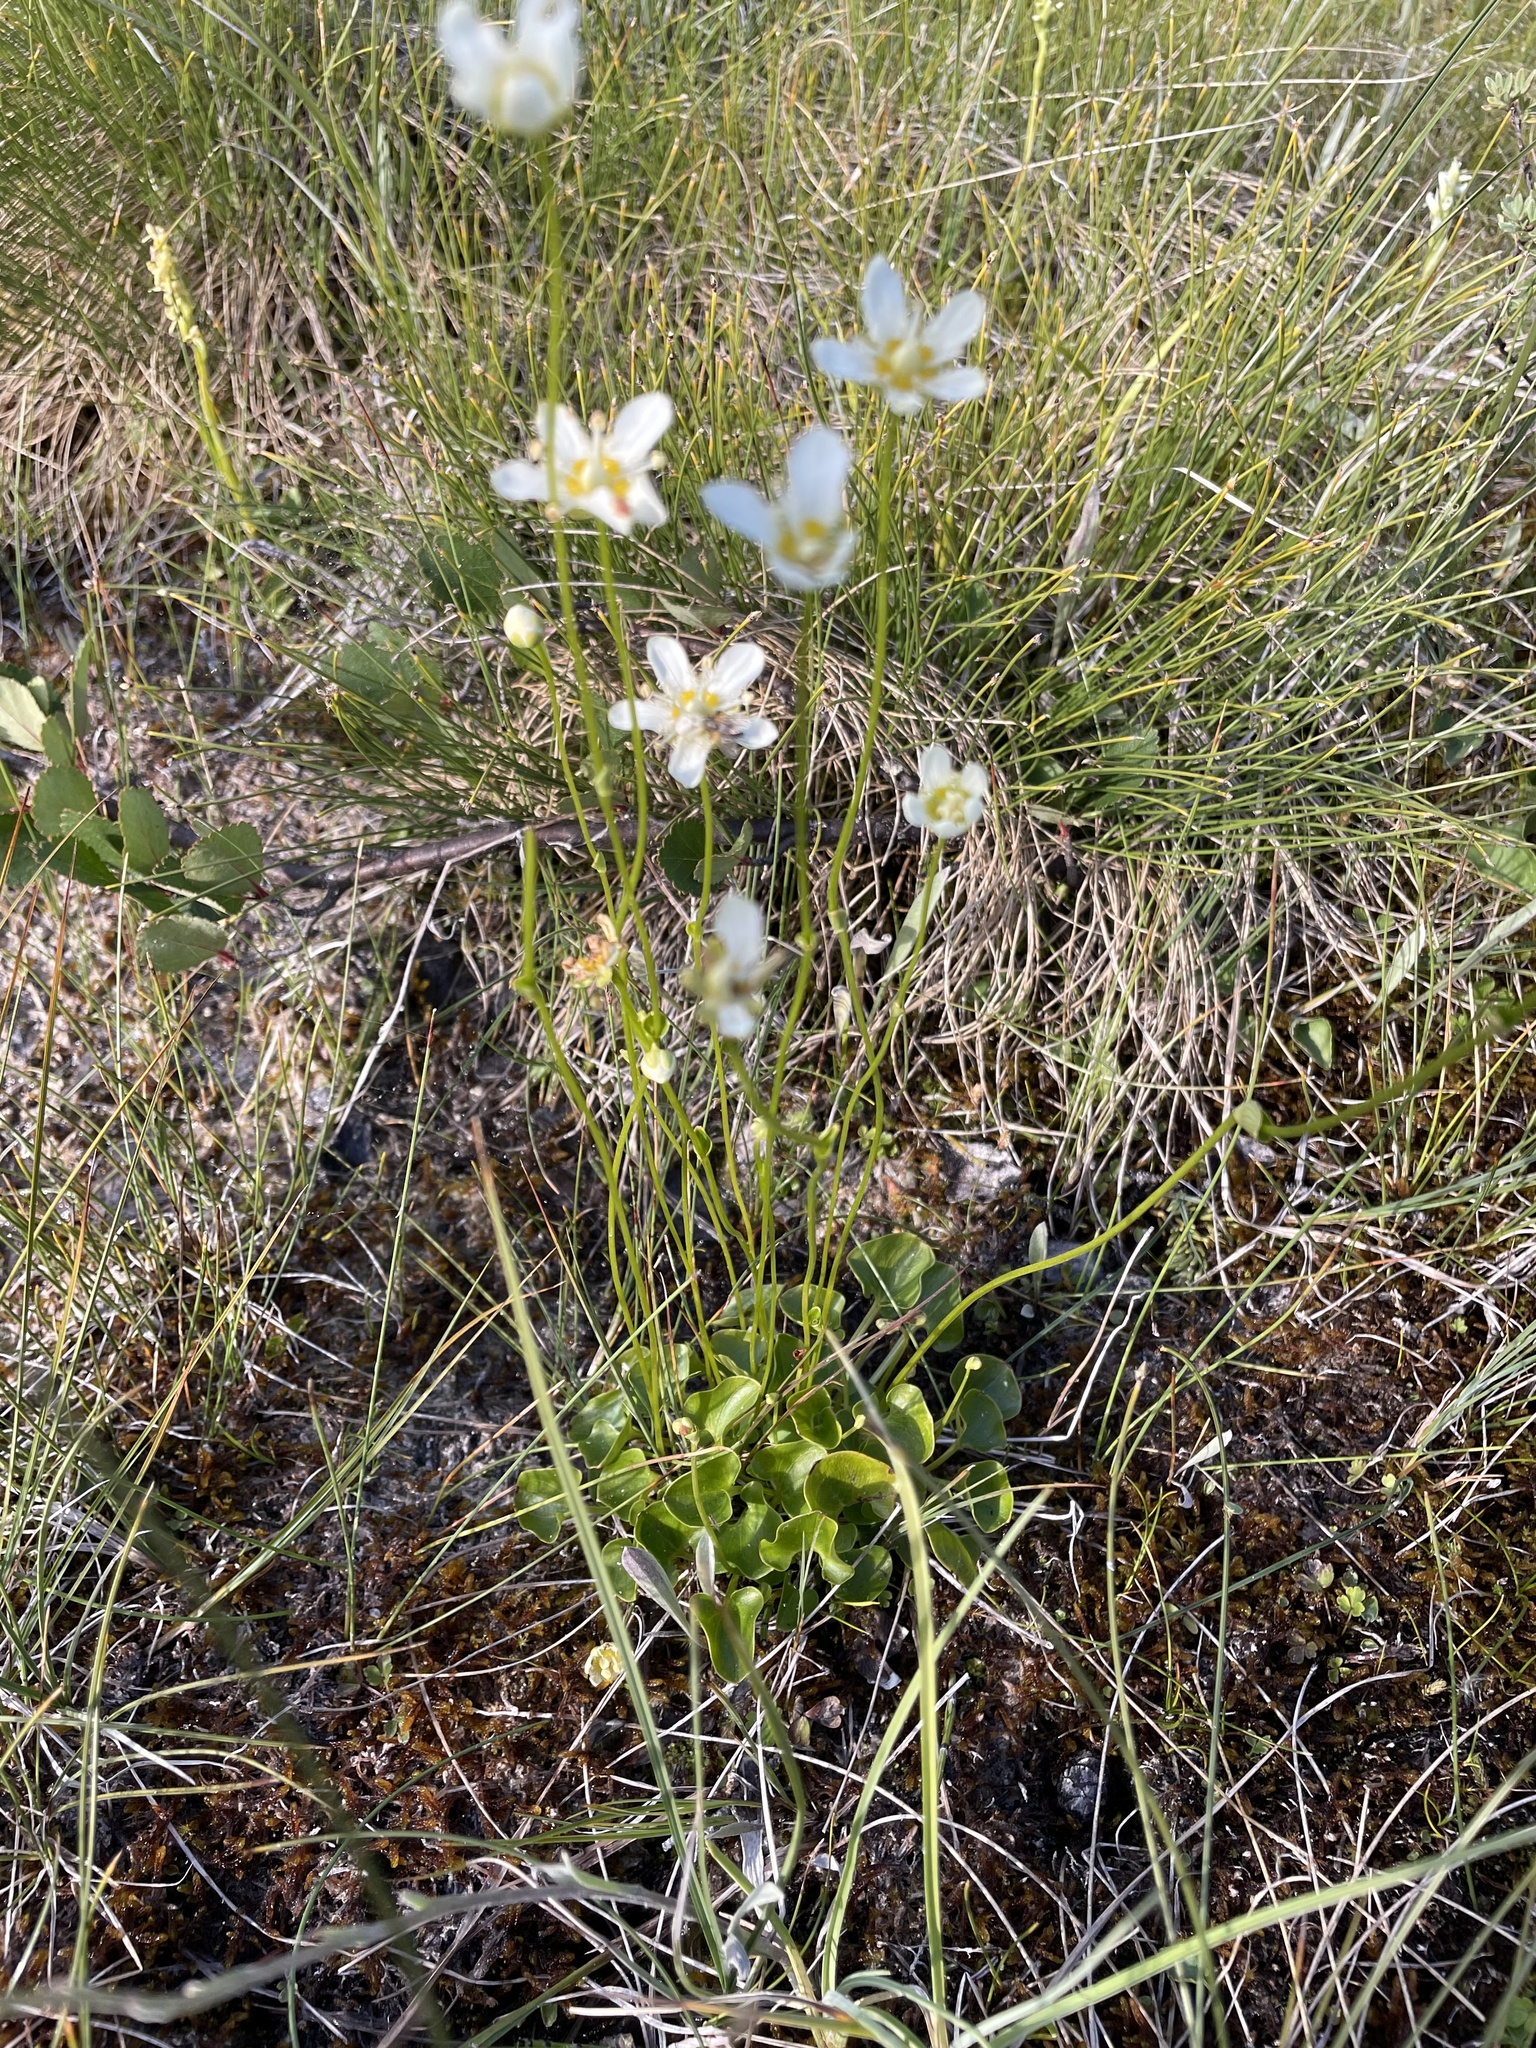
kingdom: Plantae
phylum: Tracheophyta
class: Magnoliopsida
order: Celastrales
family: Parnassiaceae
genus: Parnassia
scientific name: Parnassia fimbriata
